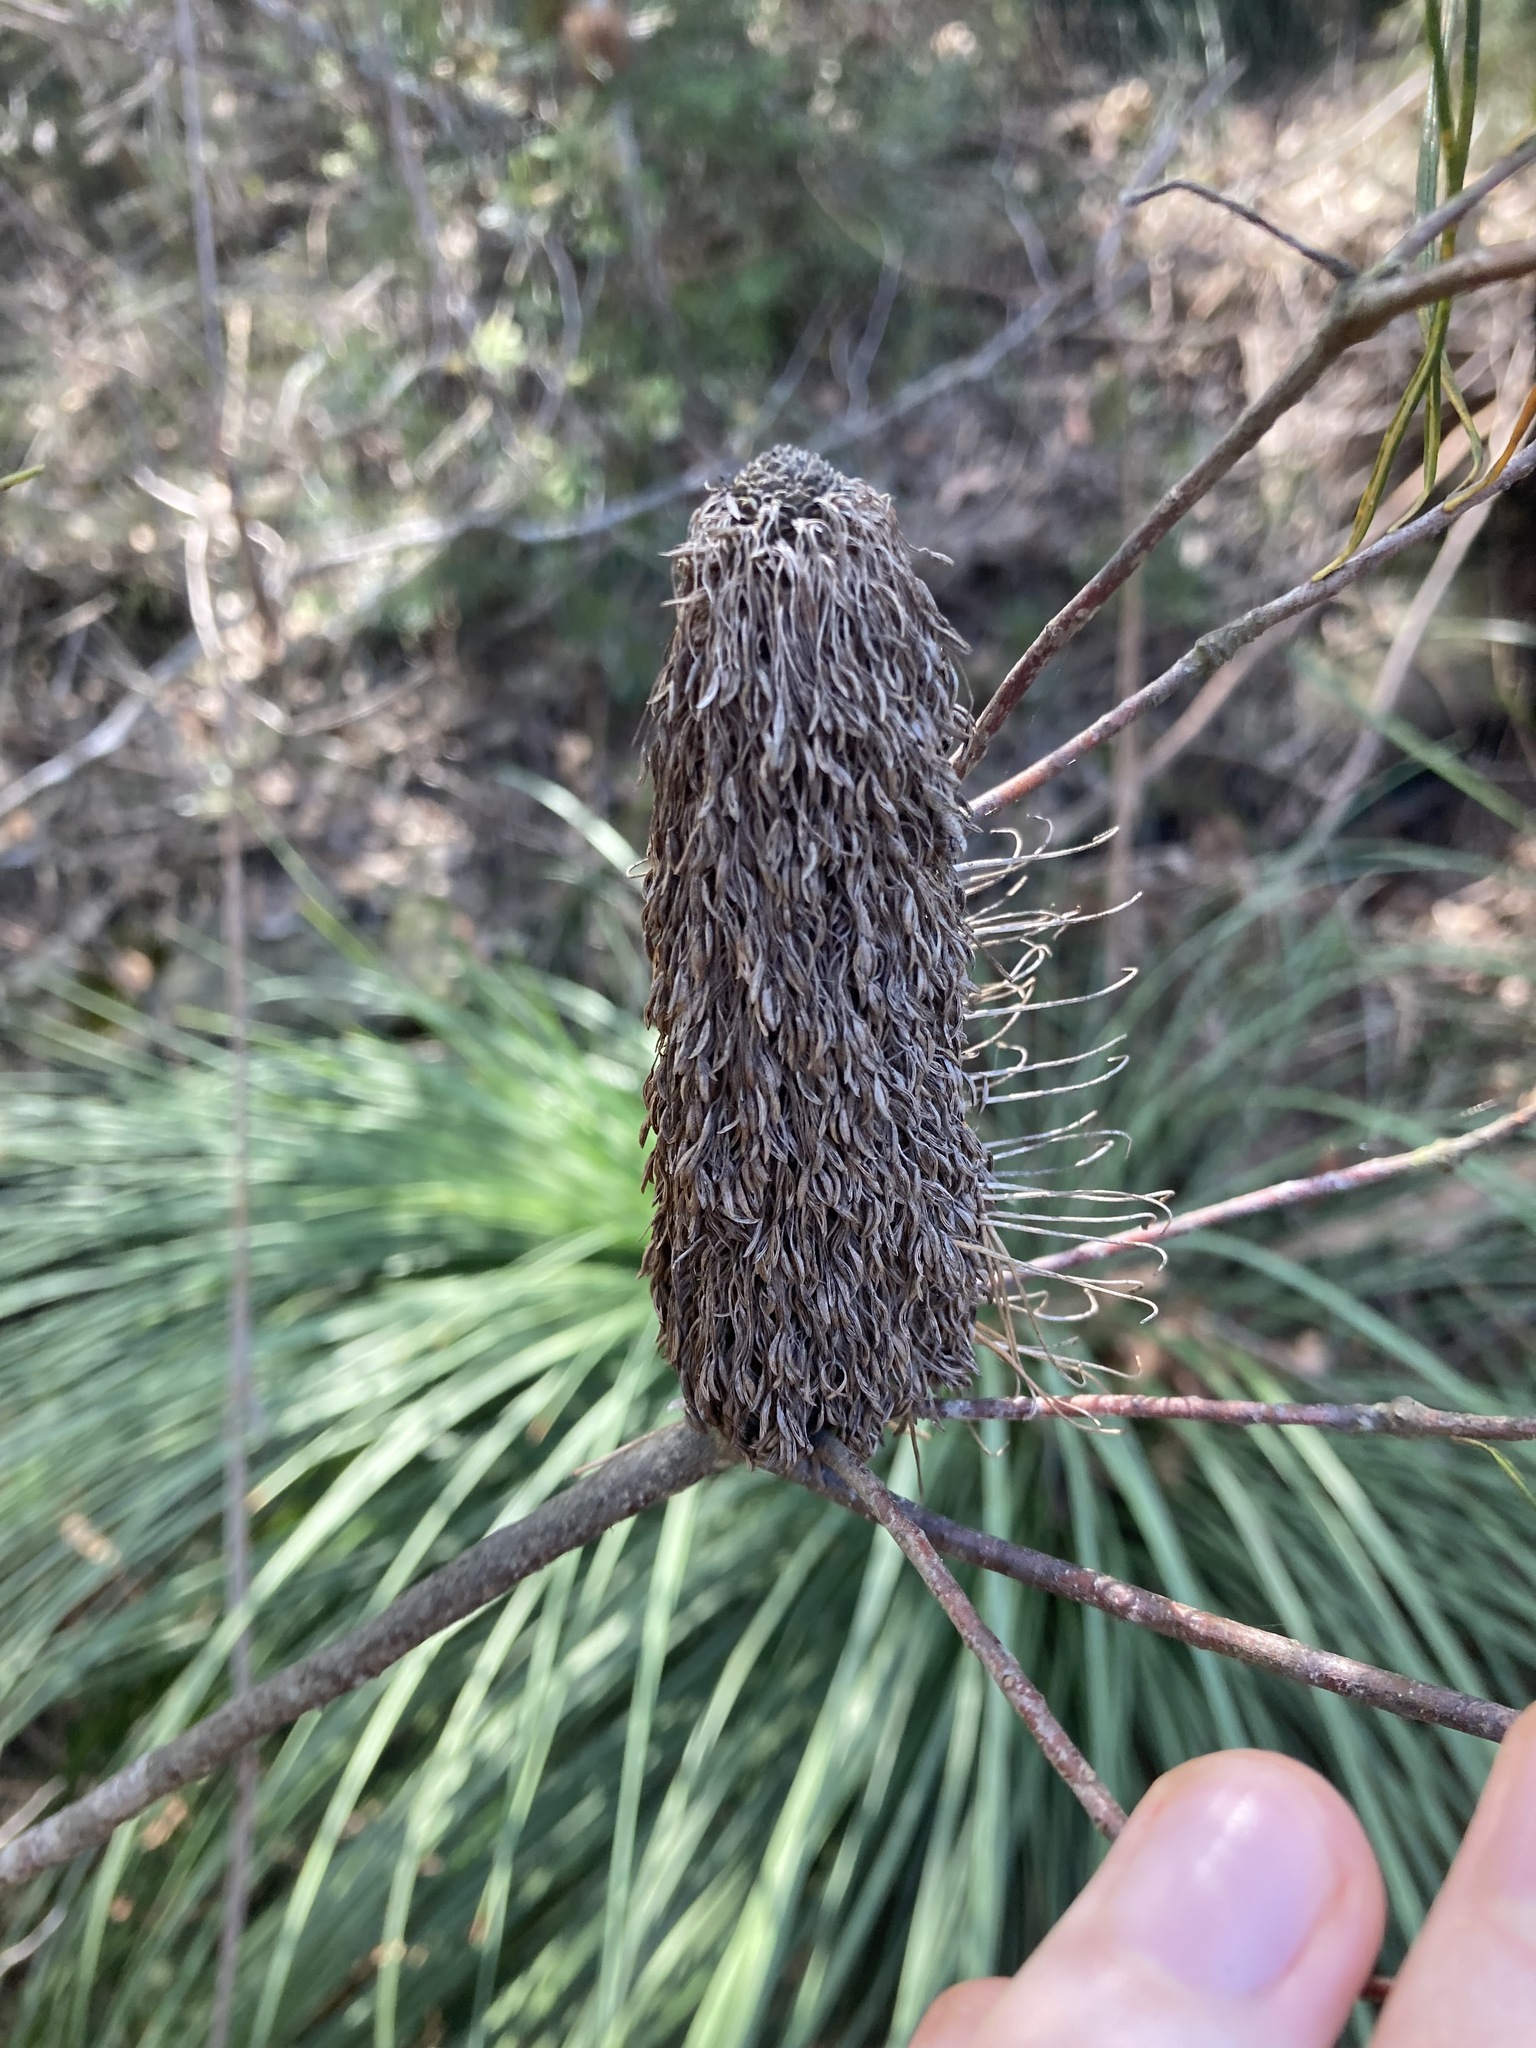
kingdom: Plantae
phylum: Tracheophyta
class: Magnoliopsida
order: Proteales
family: Proteaceae
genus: Banksia
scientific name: Banksia spinulosa
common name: Hairpin banksia
